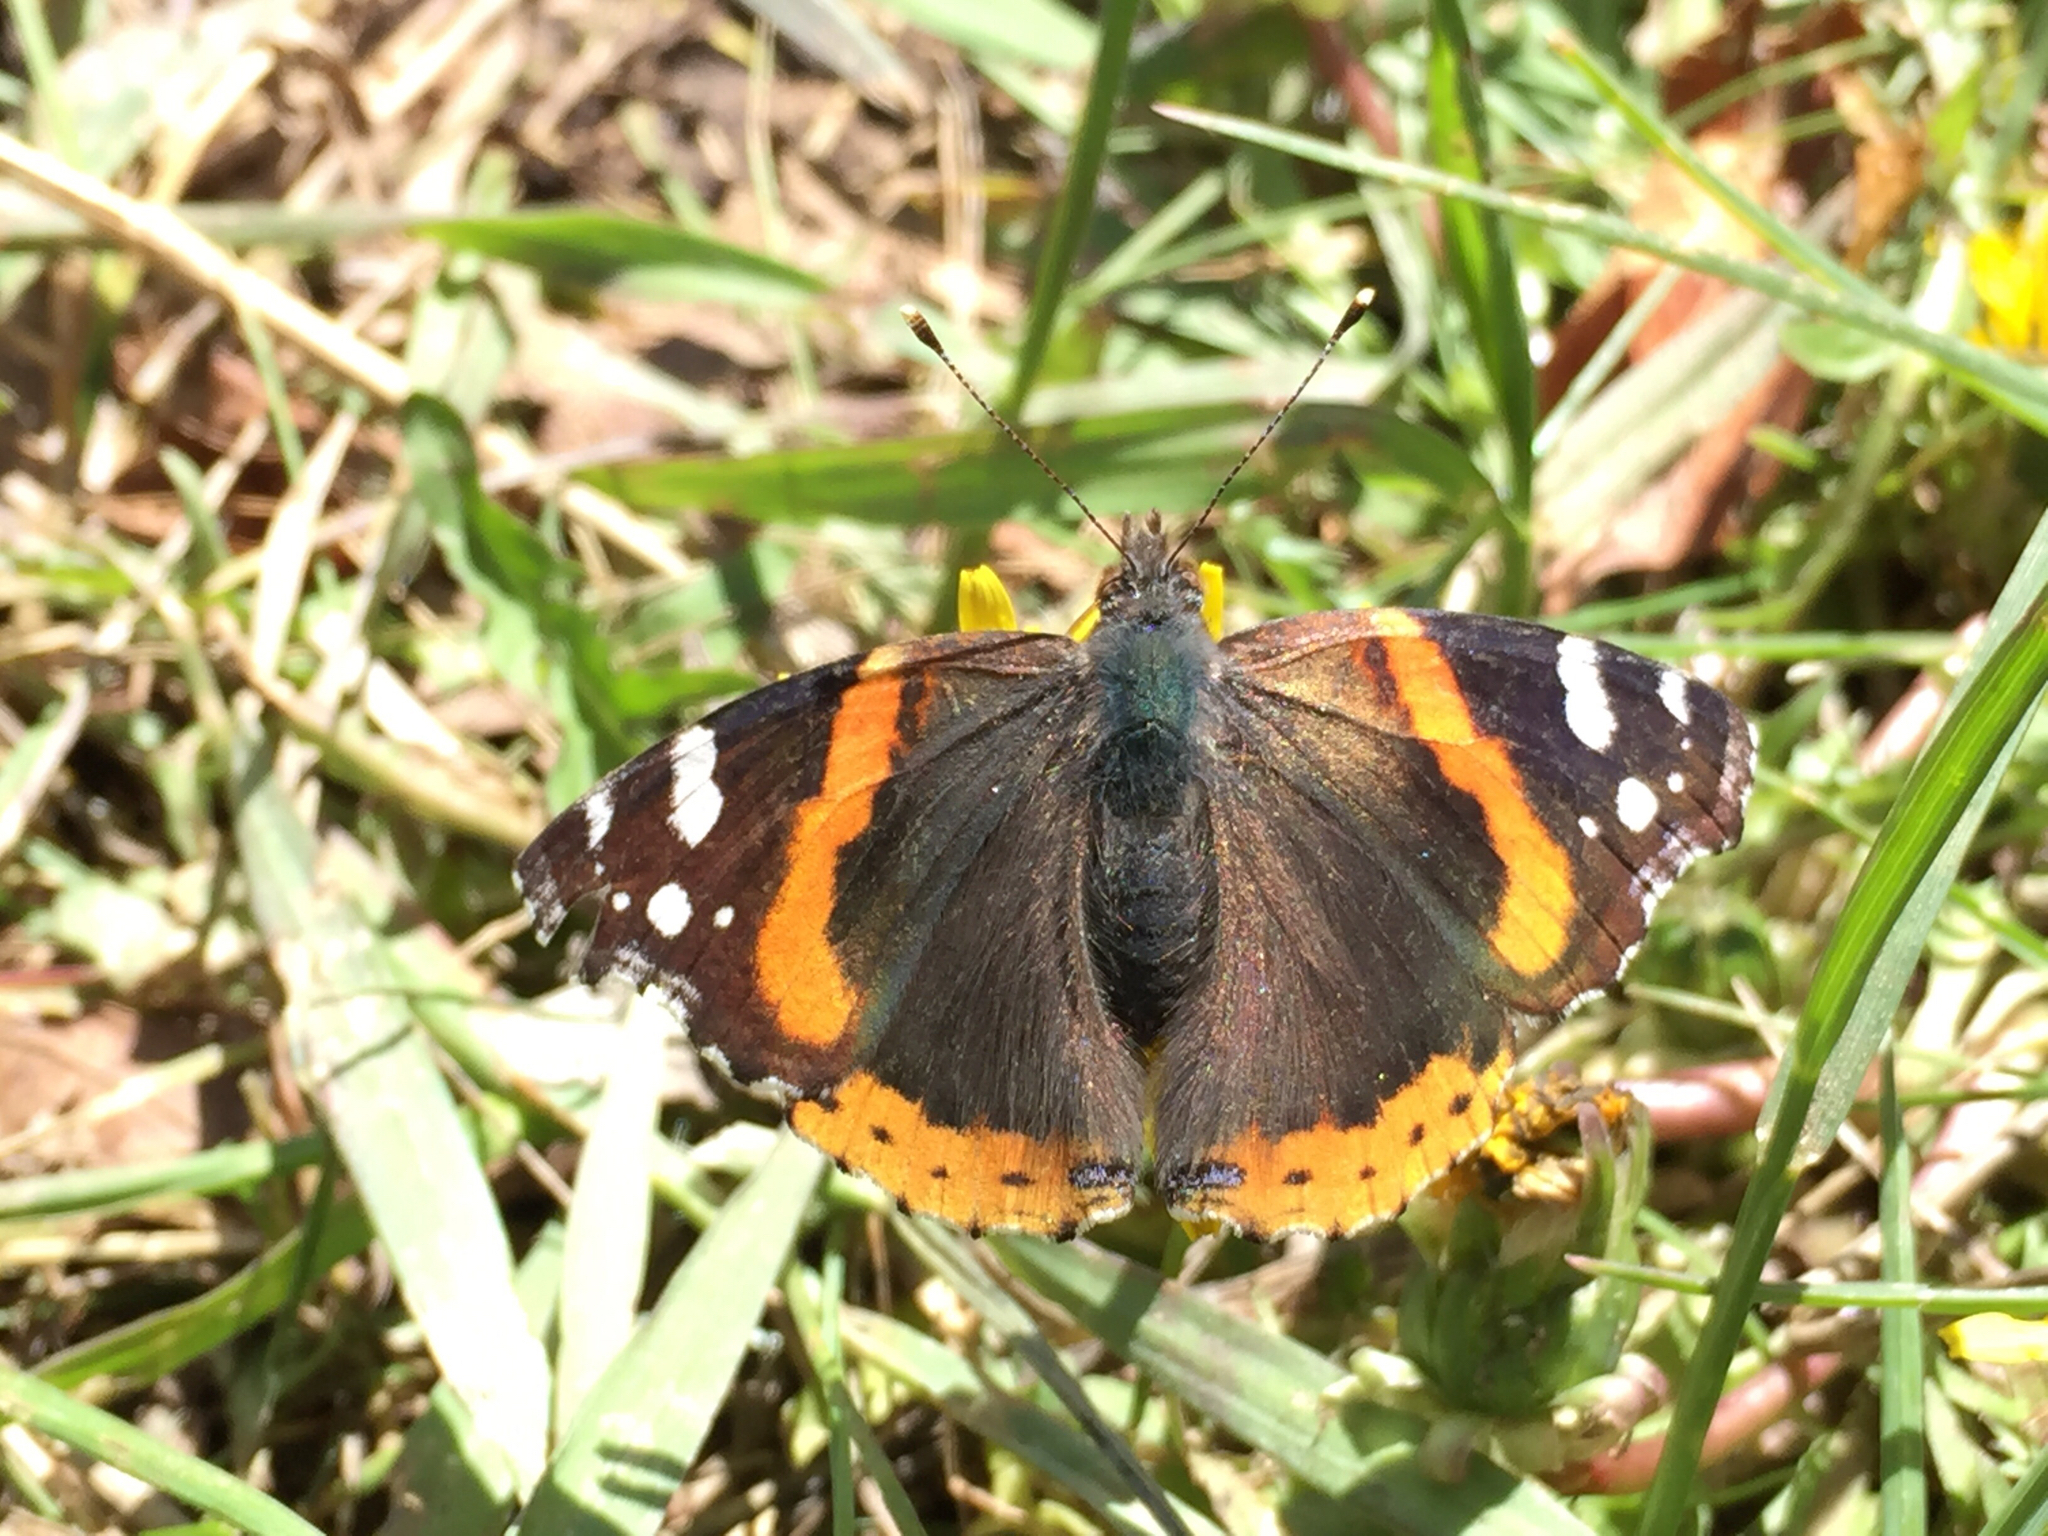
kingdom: Animalia
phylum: Arthropoda
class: Insecta
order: Lepidoptera
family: Nymphalidae
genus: Vanessa
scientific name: Vanessa atalanta
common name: Red admiral
